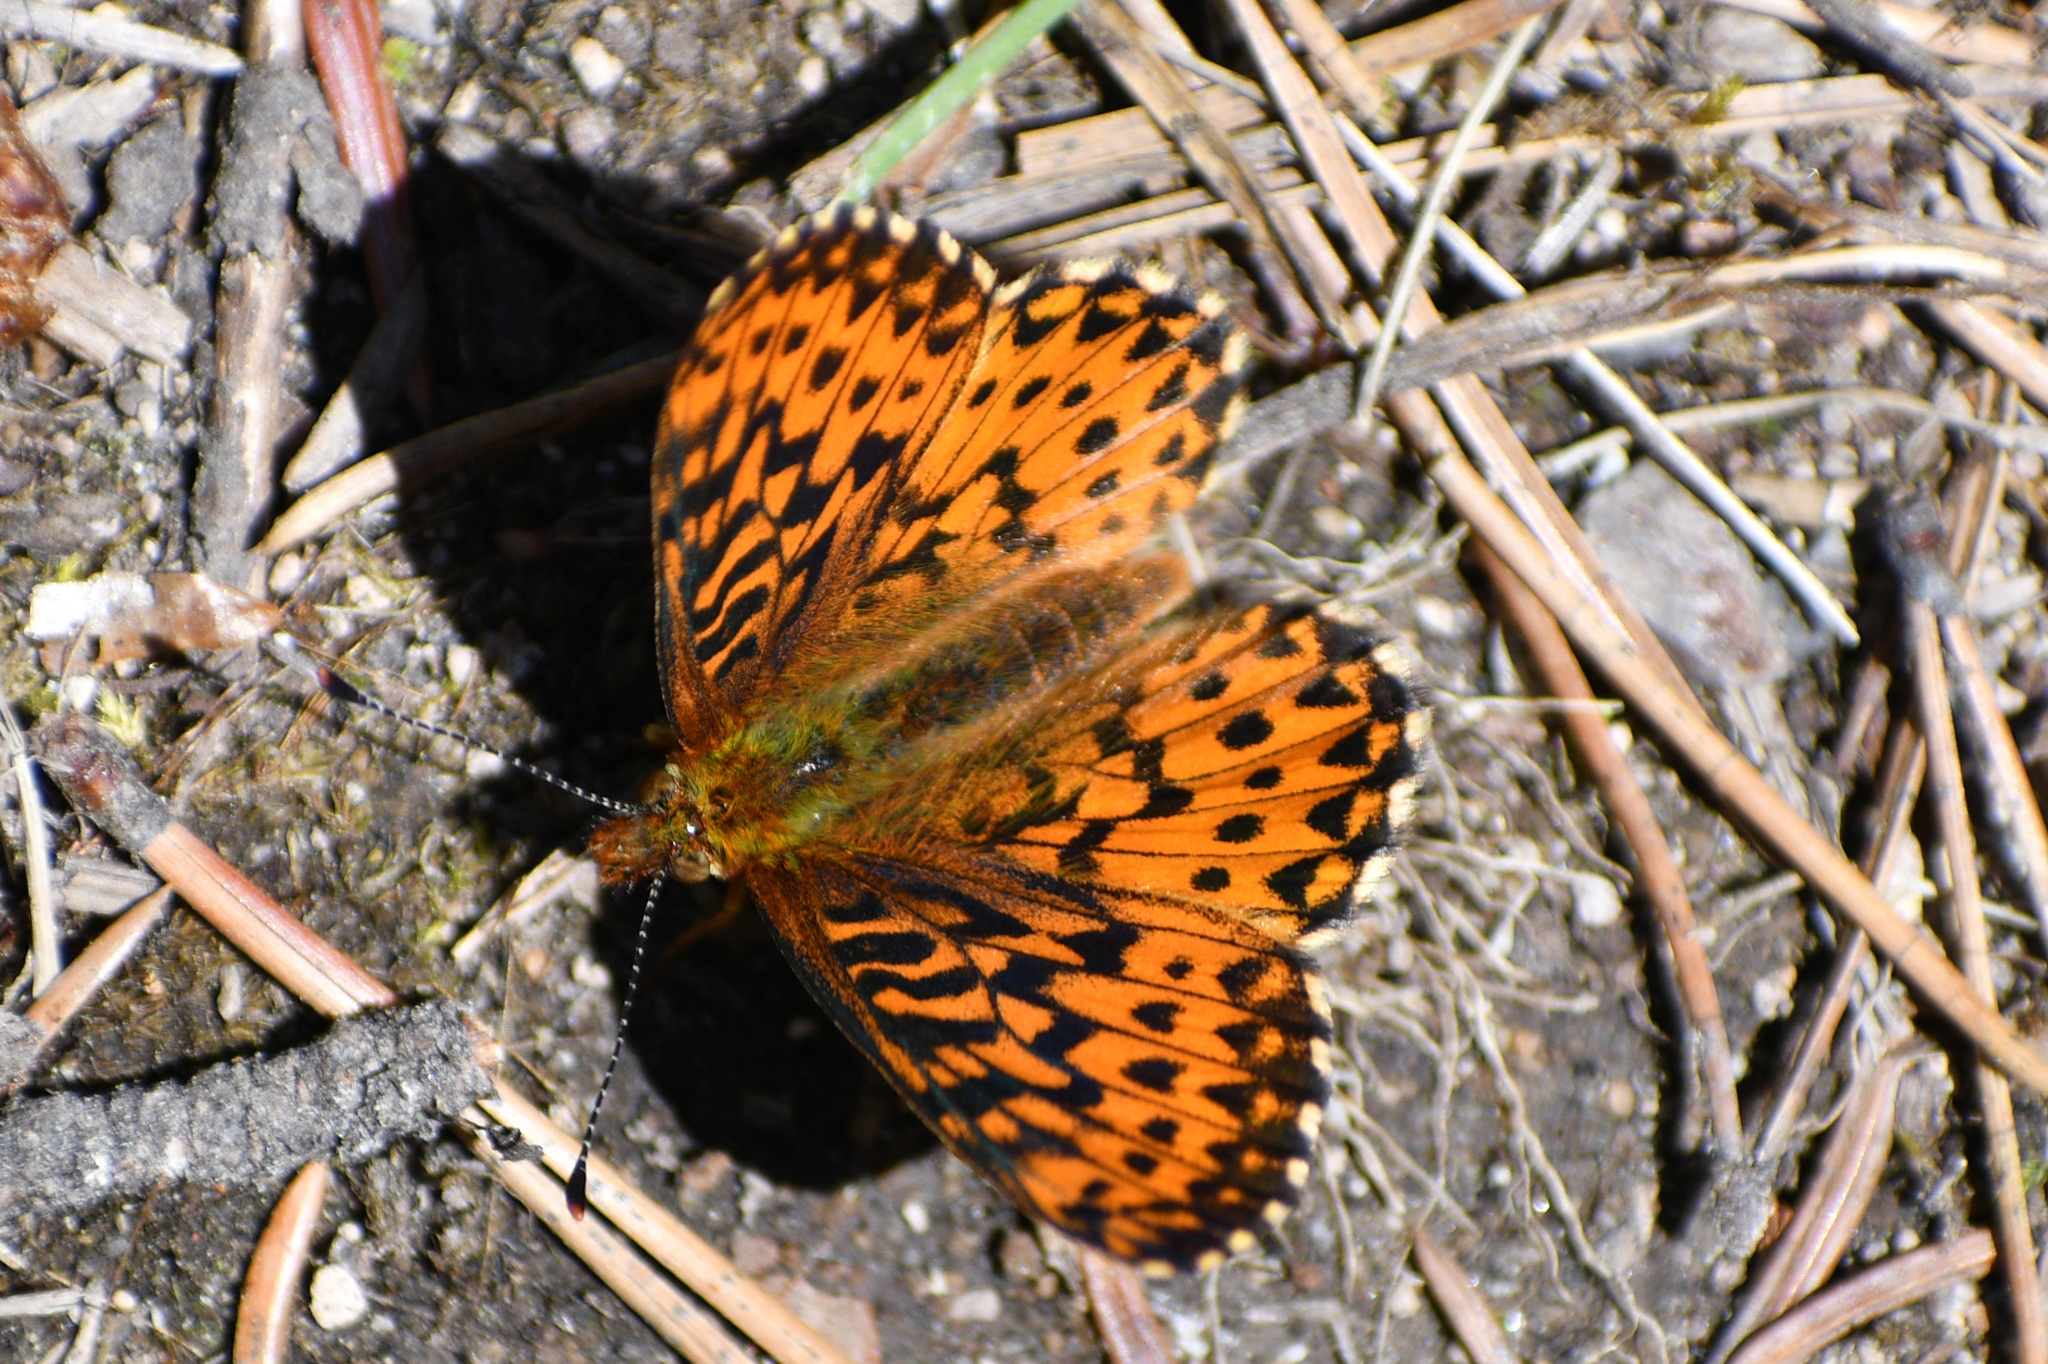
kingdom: Animalia
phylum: Arthropoda
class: Insecta
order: Lepidoptera
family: Nymphalidae
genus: Clossiana
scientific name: Clossiana chariclea
